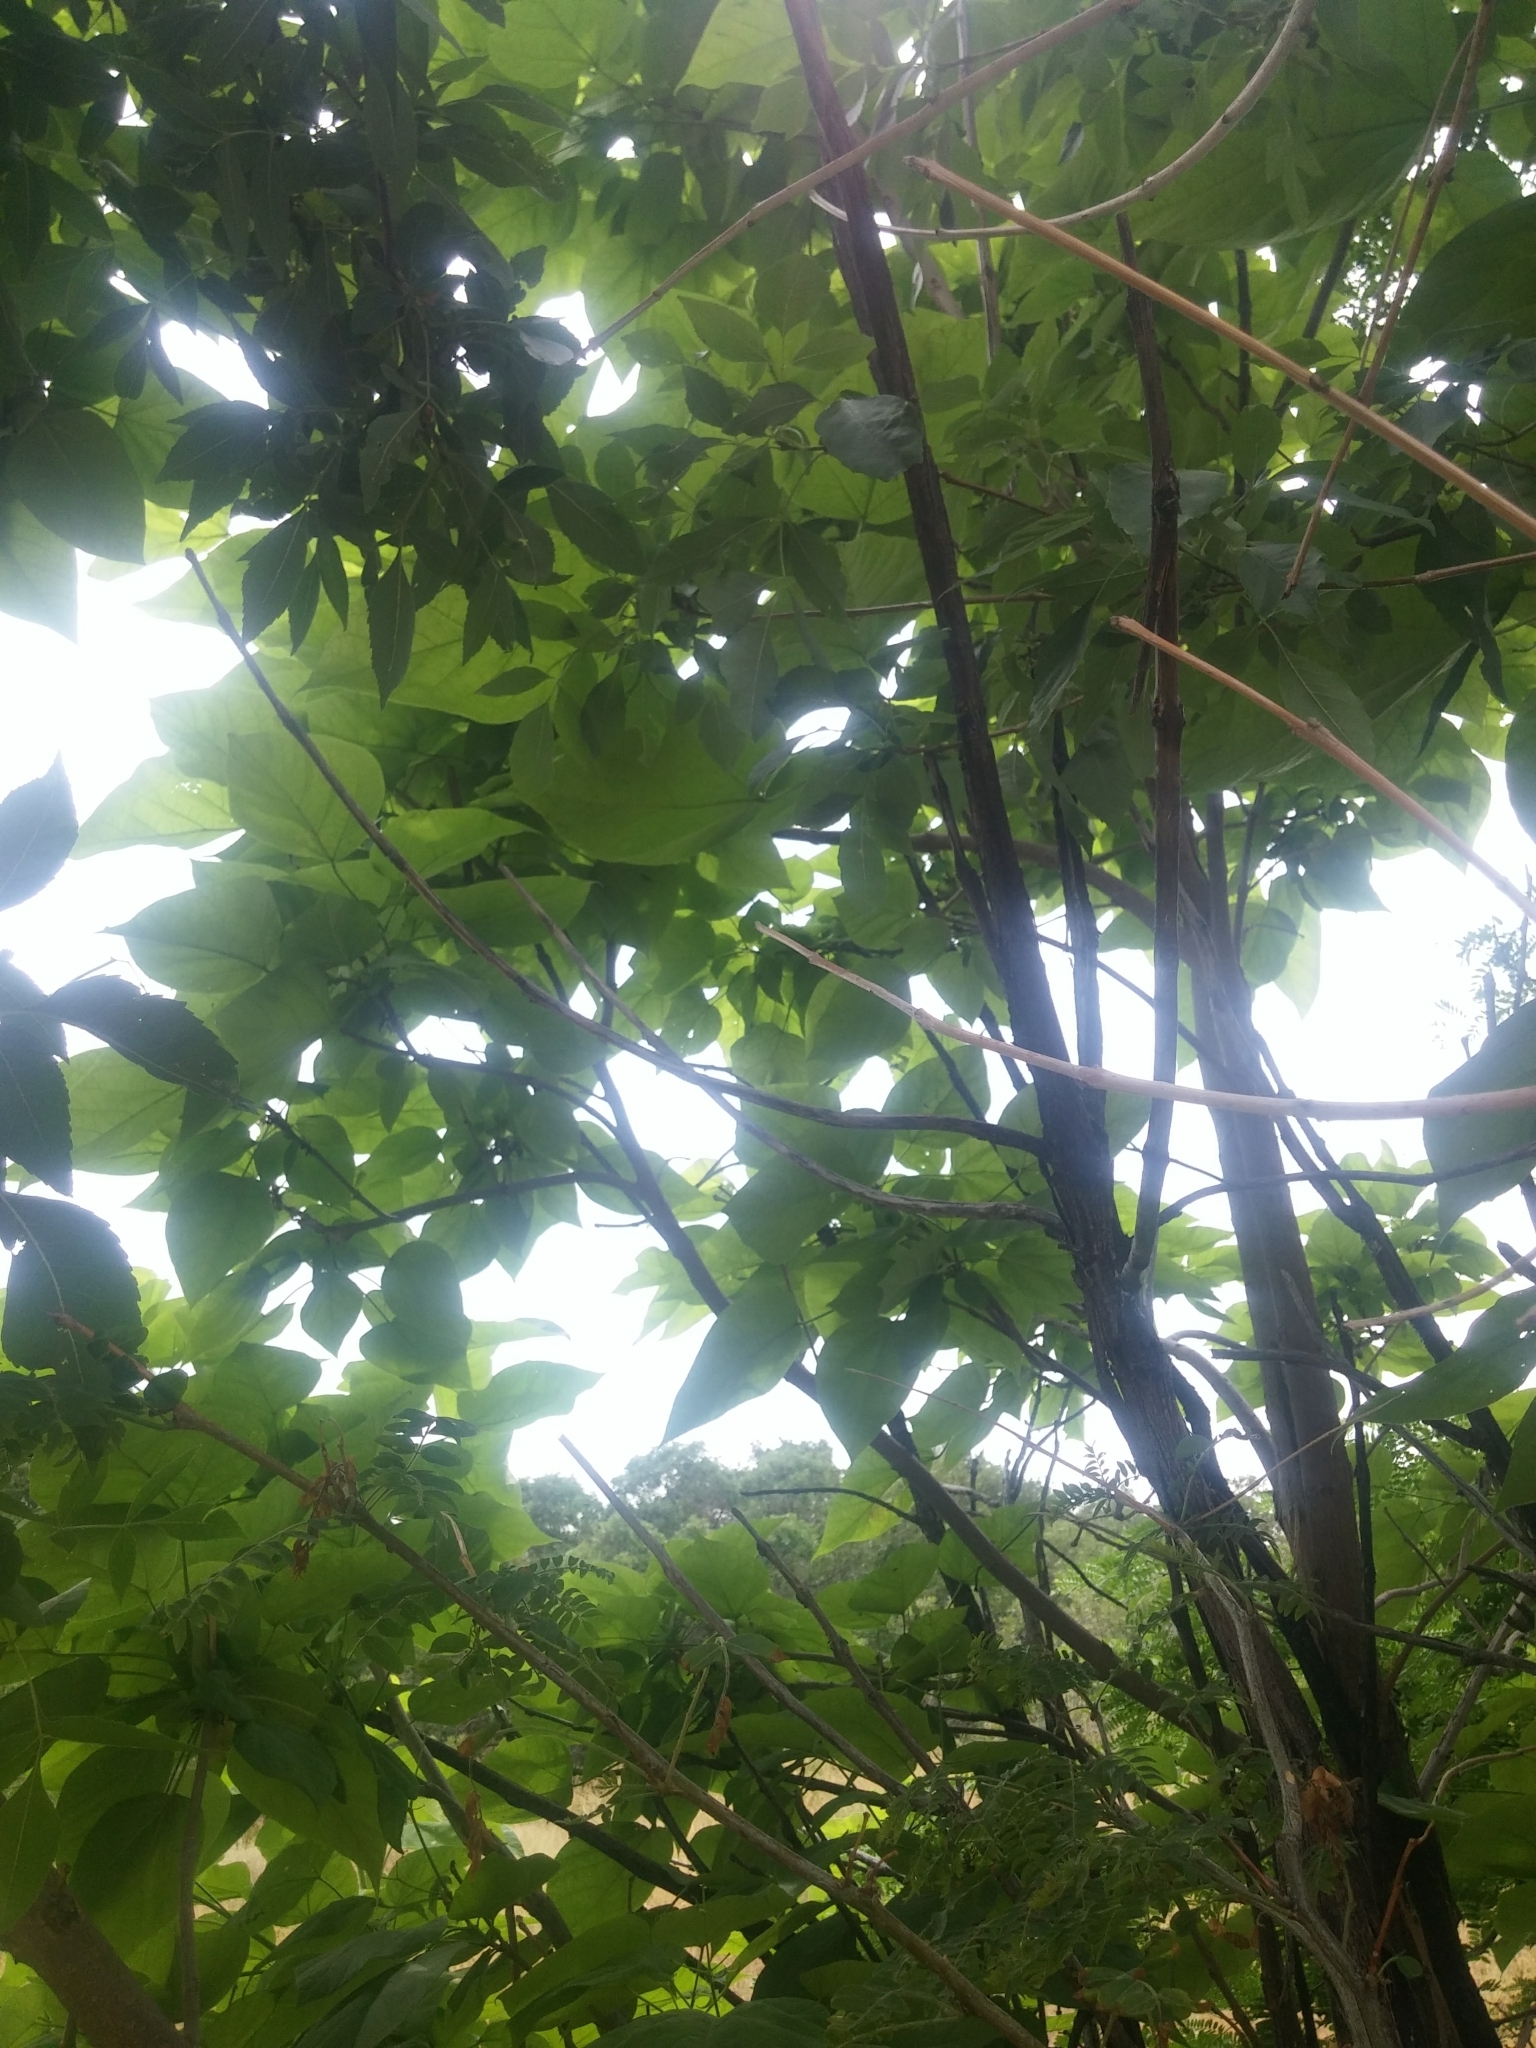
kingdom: Plantae
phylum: Tracheophyta
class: Magnoliopsida
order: Lamiales
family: Bignoniaceae
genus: Catalpa
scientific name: Catalpa bignonioides
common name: Southern catalpa
